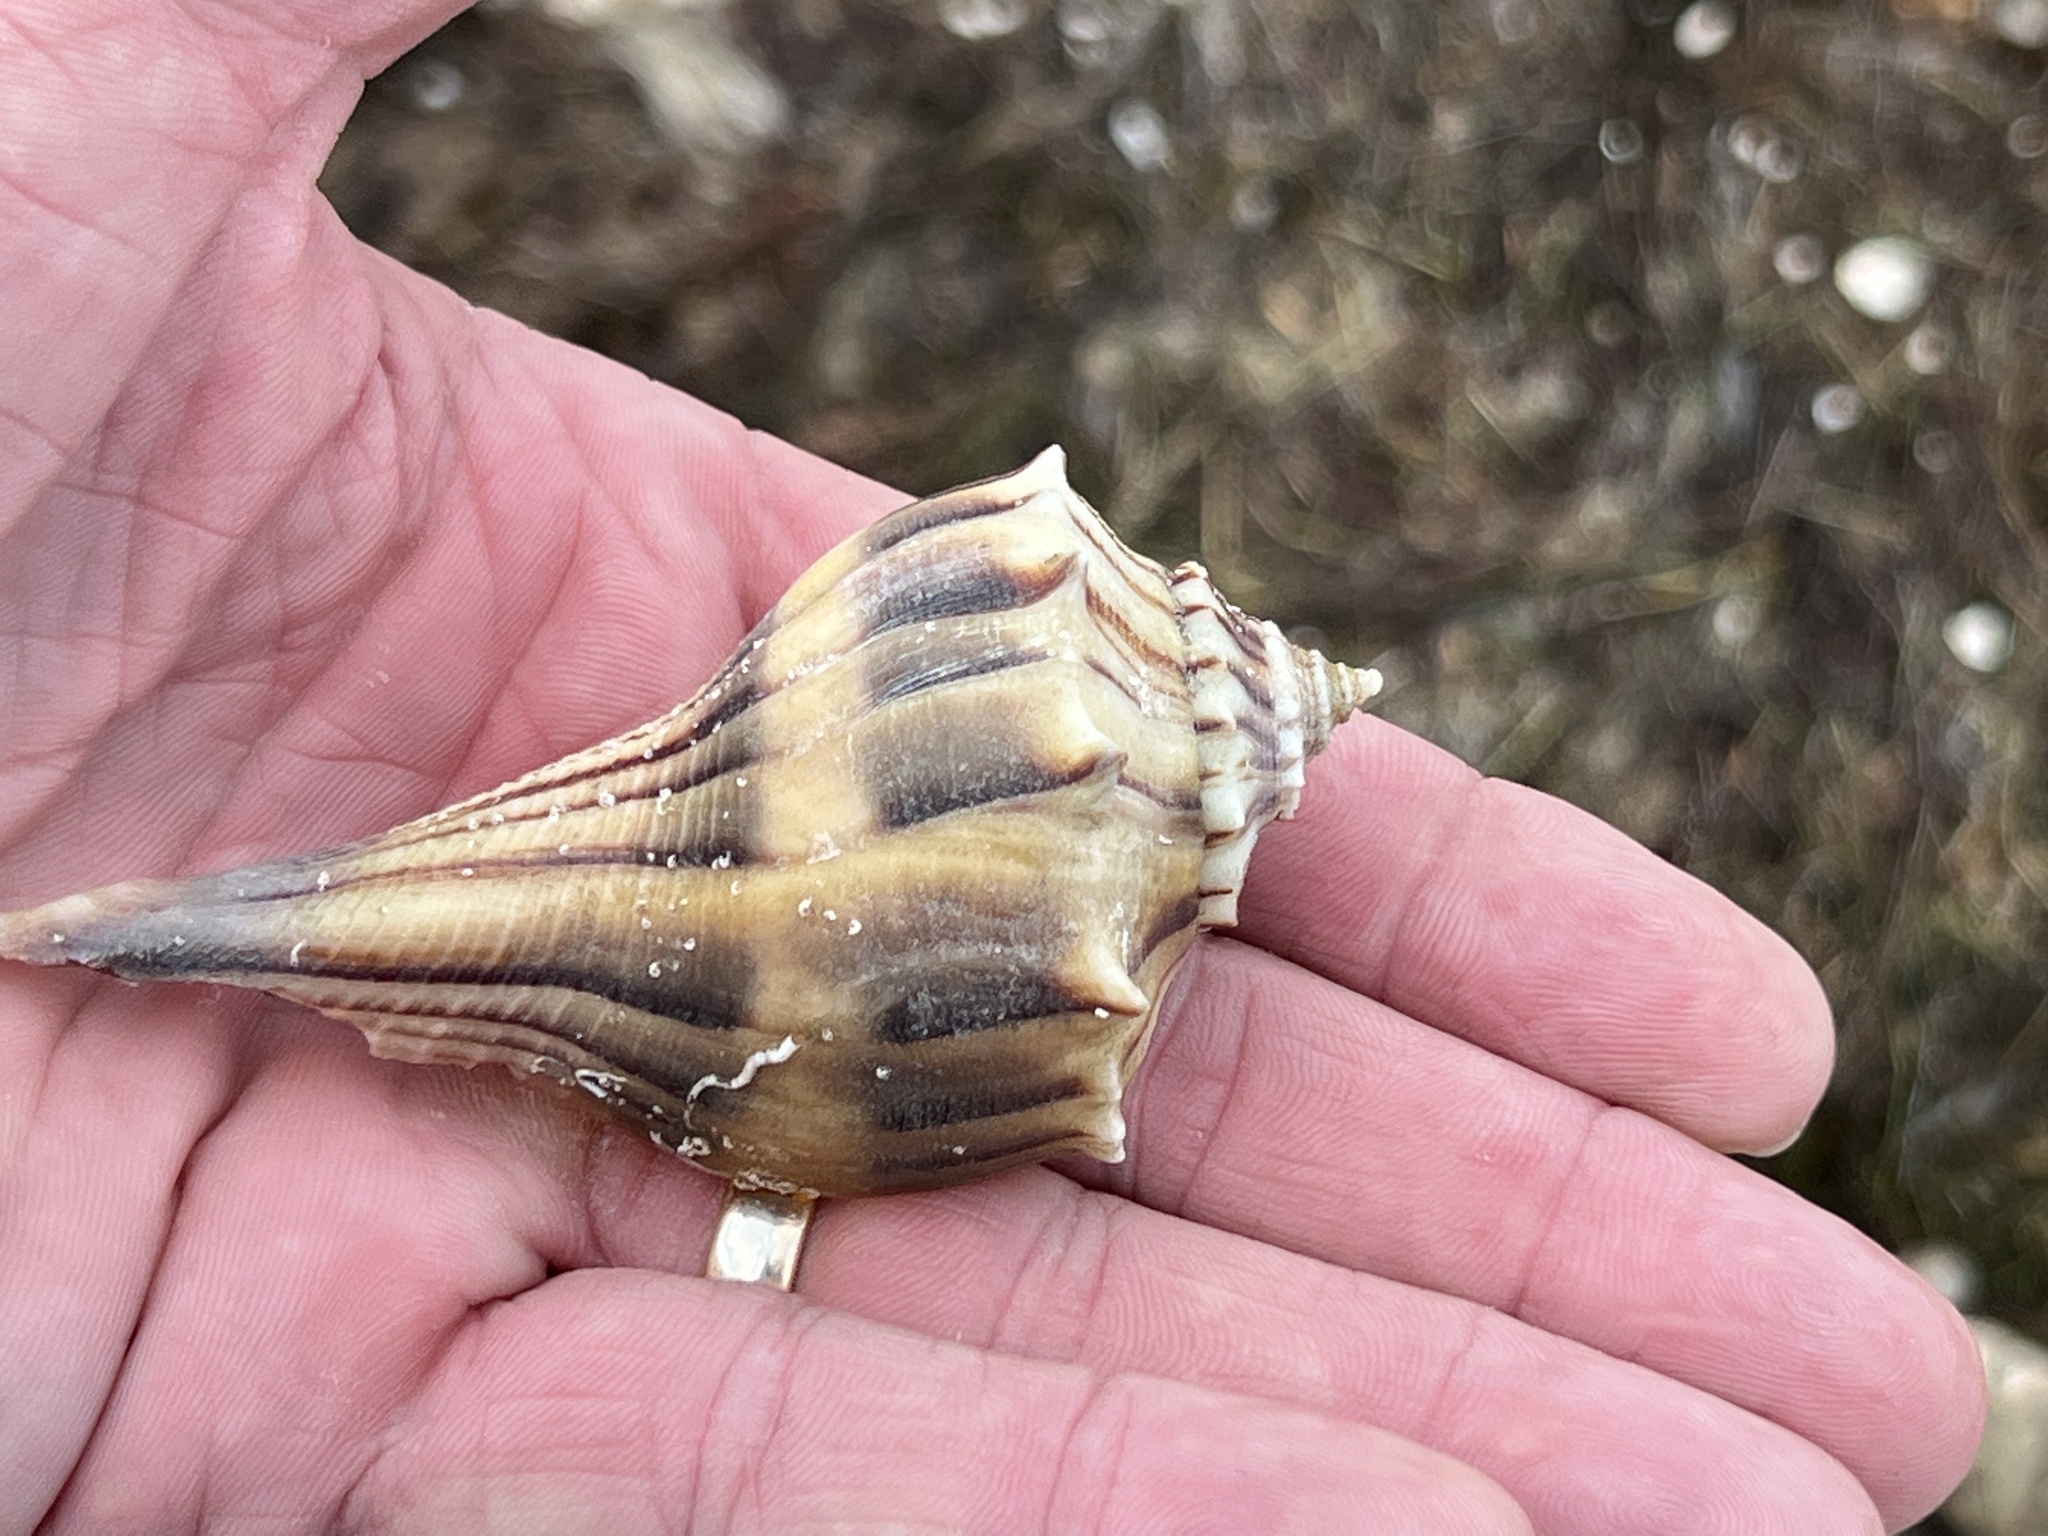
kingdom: Animalia
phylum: Mollusca
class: Gastropoda
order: Neogastropoda
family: Busyconidae
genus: Sinistrofulgur
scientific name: Sinistrofulgur pulleyi
